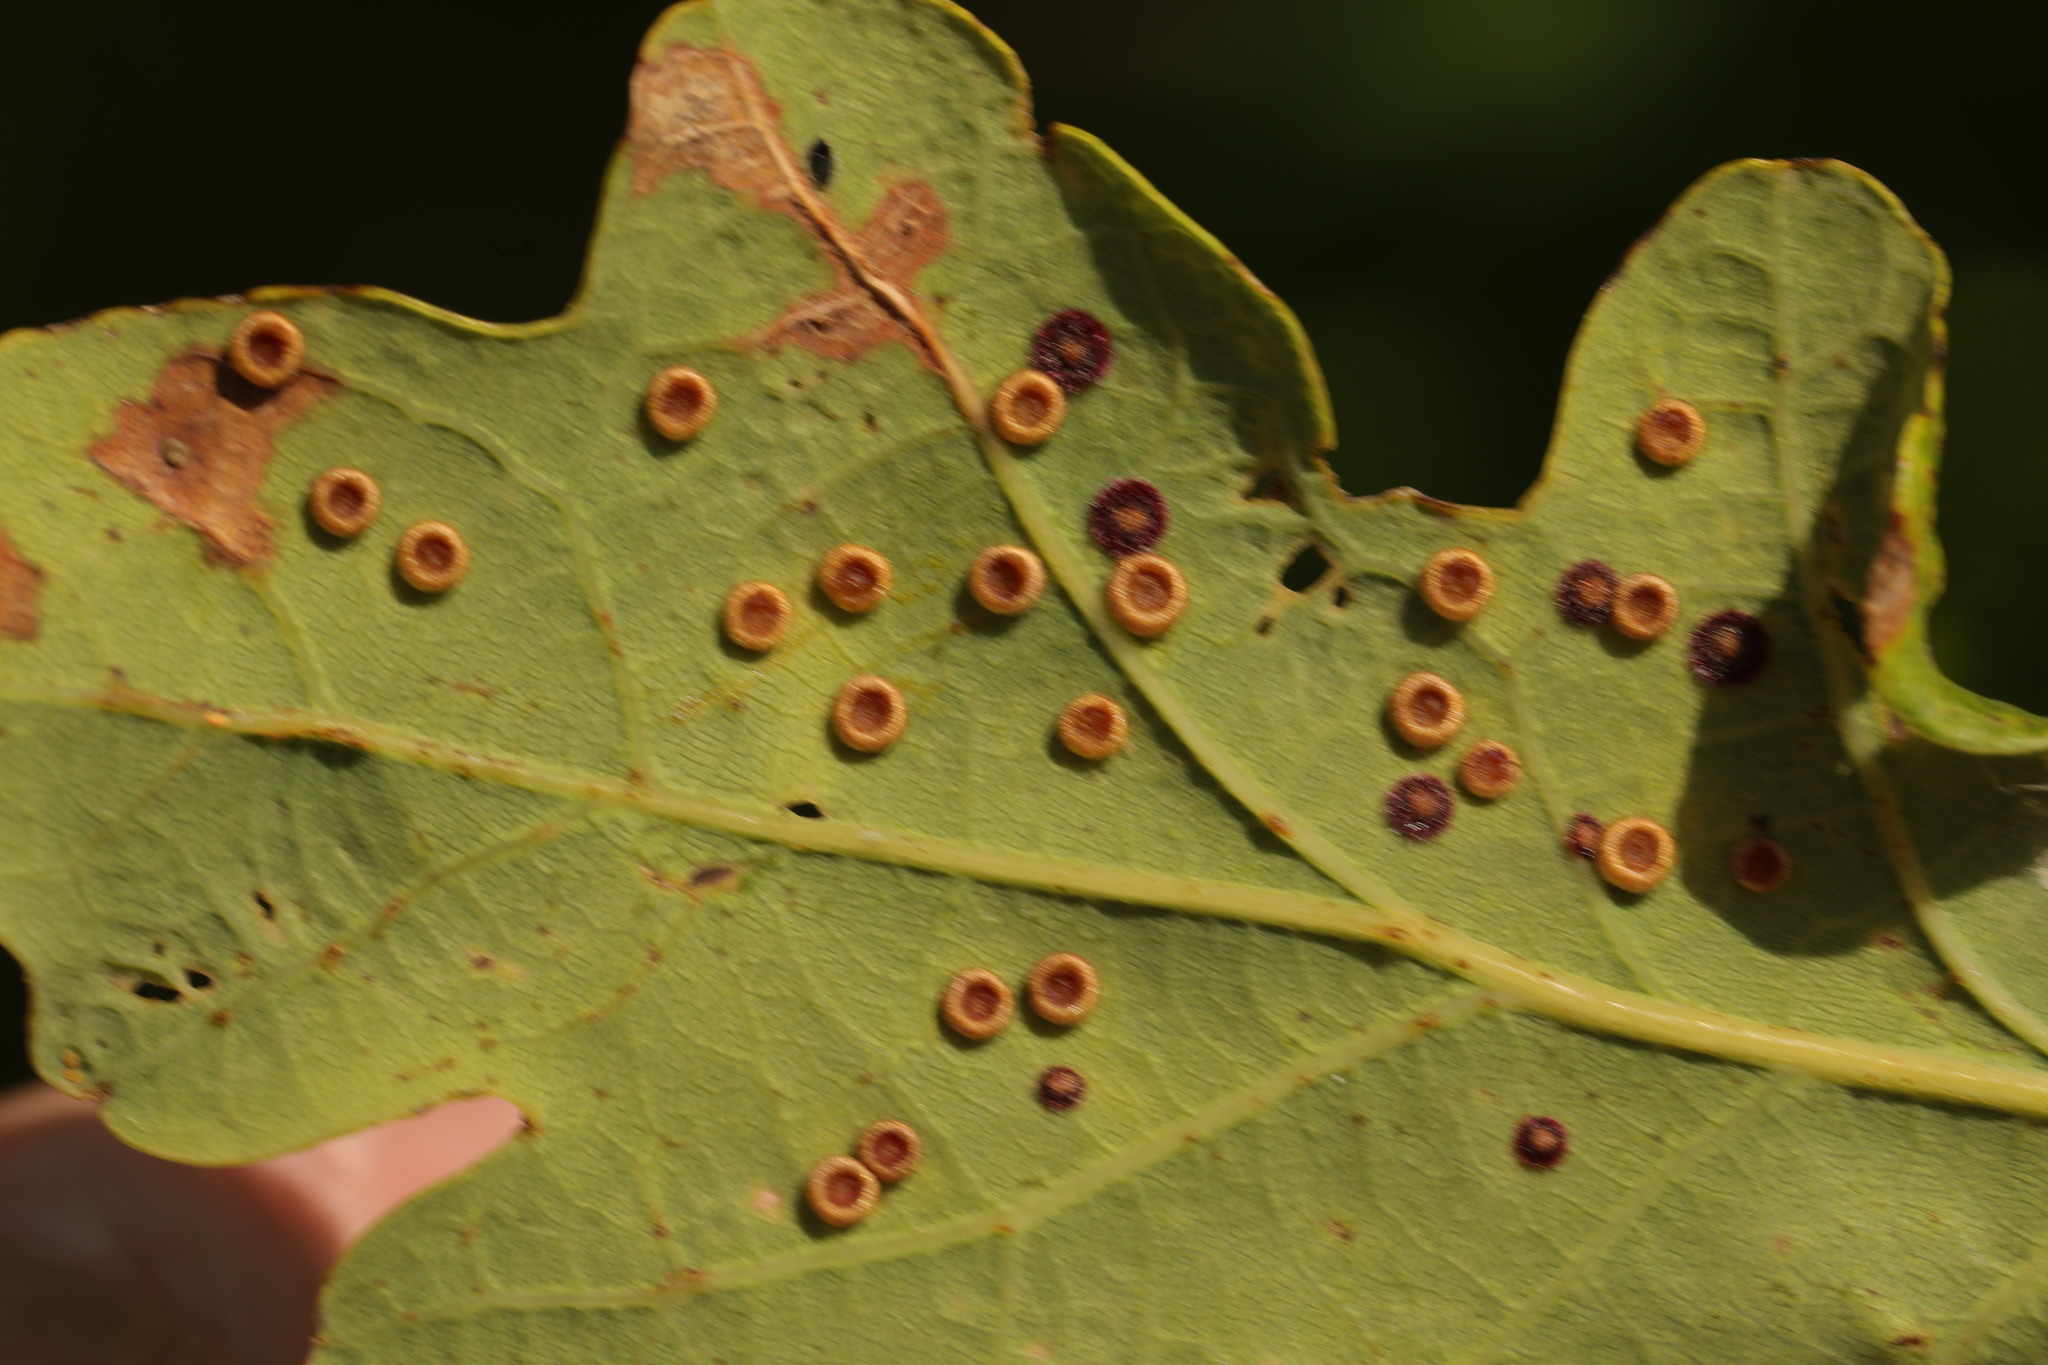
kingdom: Animalia
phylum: Arthropoda
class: Insecta
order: Hymenoptera
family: Cynipidae
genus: Neuroterus
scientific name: Neuroterus numismalis
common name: Silk-button spangle gall
